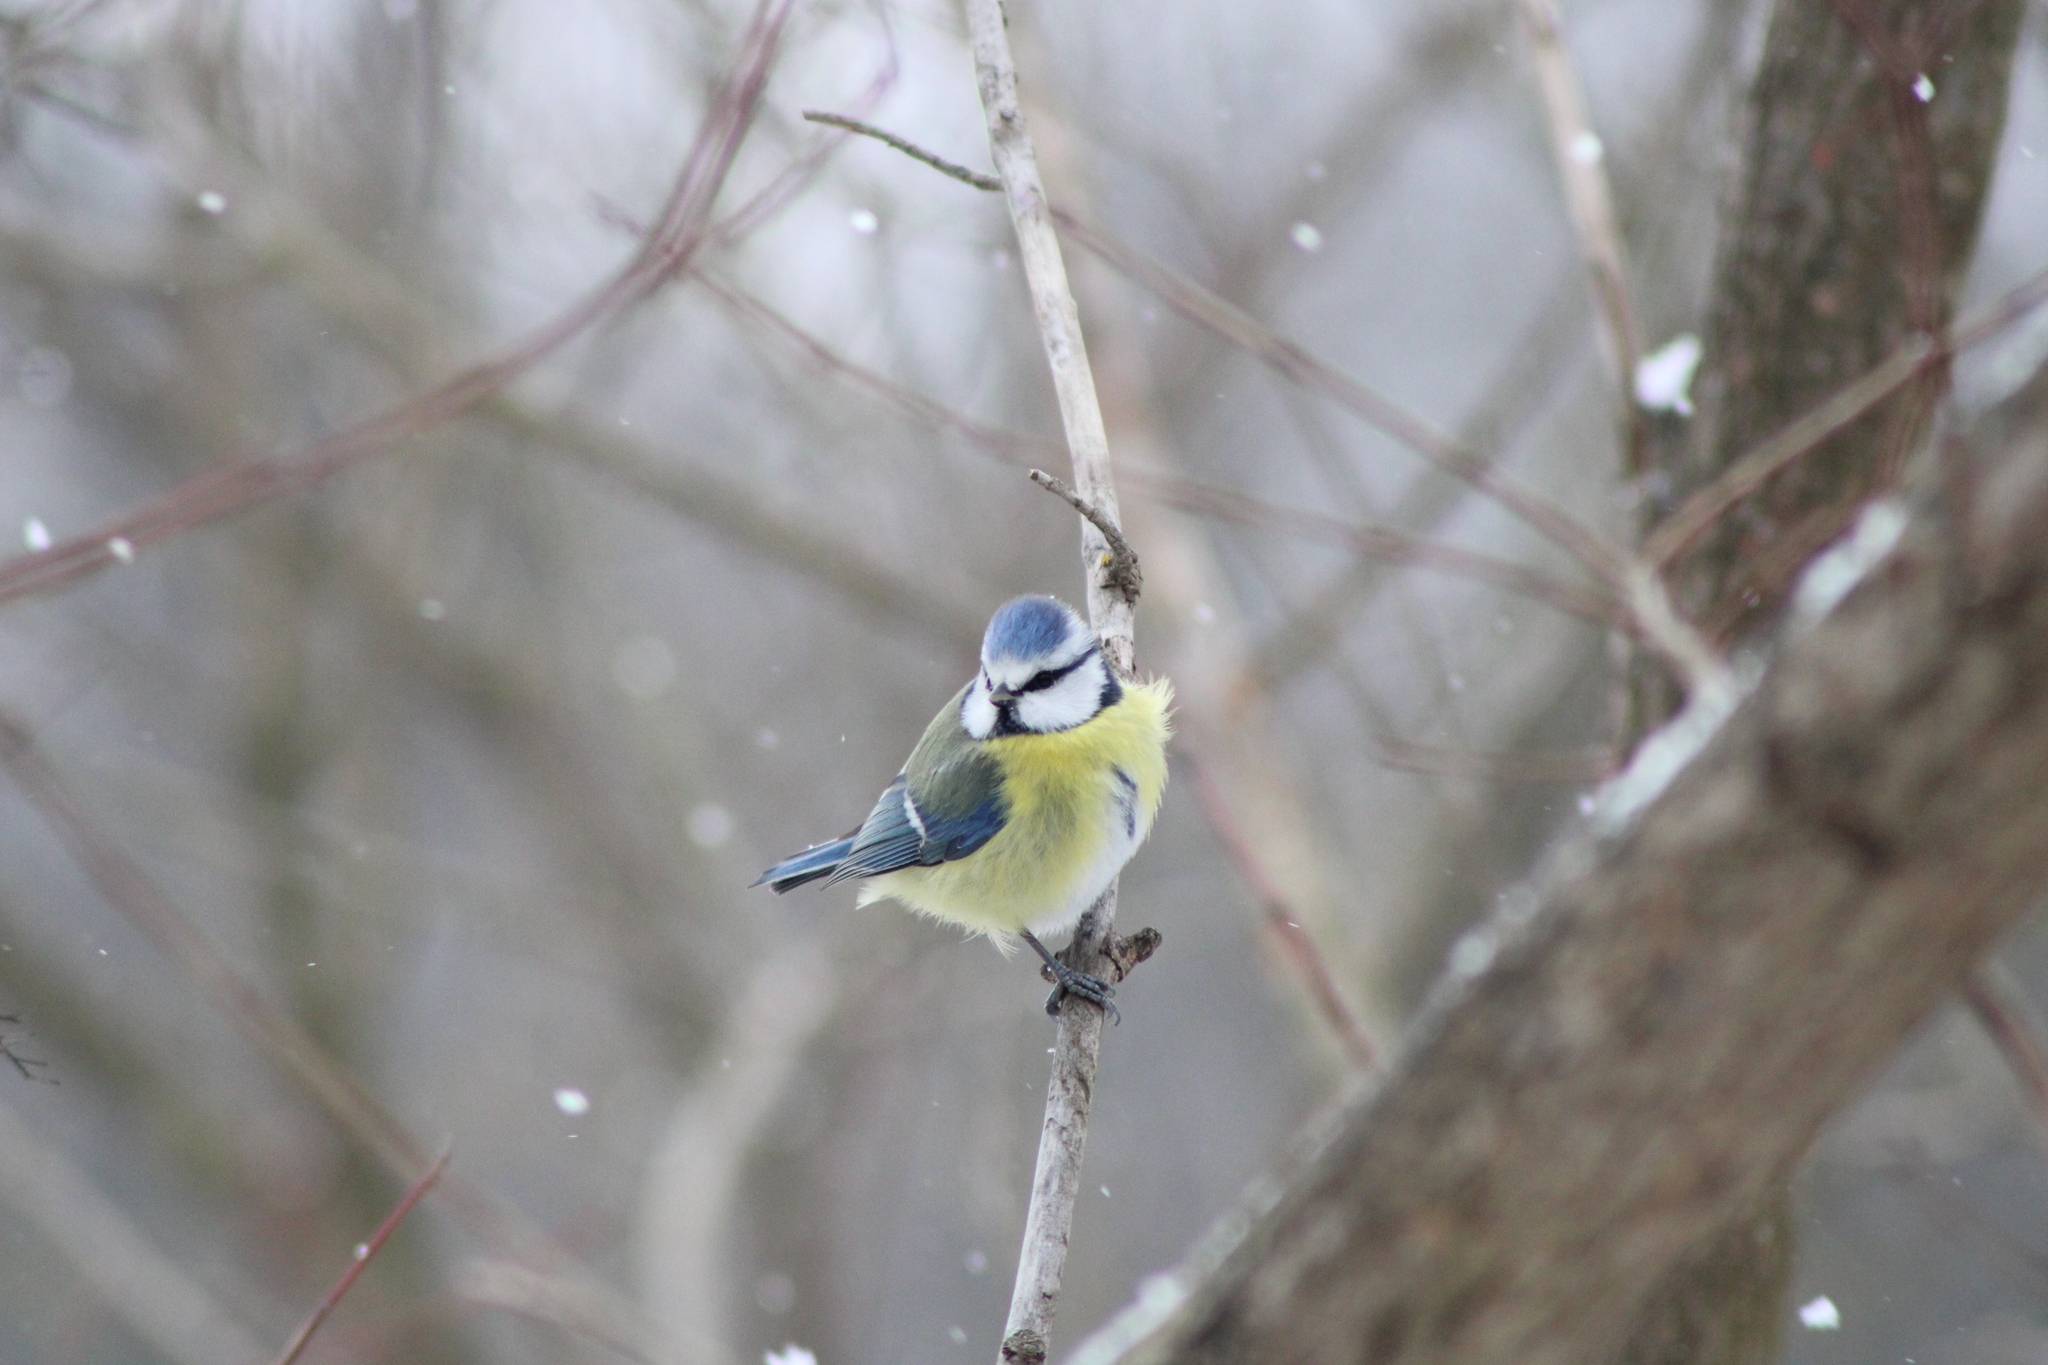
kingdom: Animalia
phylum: Chordata
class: Aves
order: Passeriformes
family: Paridae
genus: Cyanistes
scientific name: Cyanistes caeruleus
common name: Eurasian blue tit
